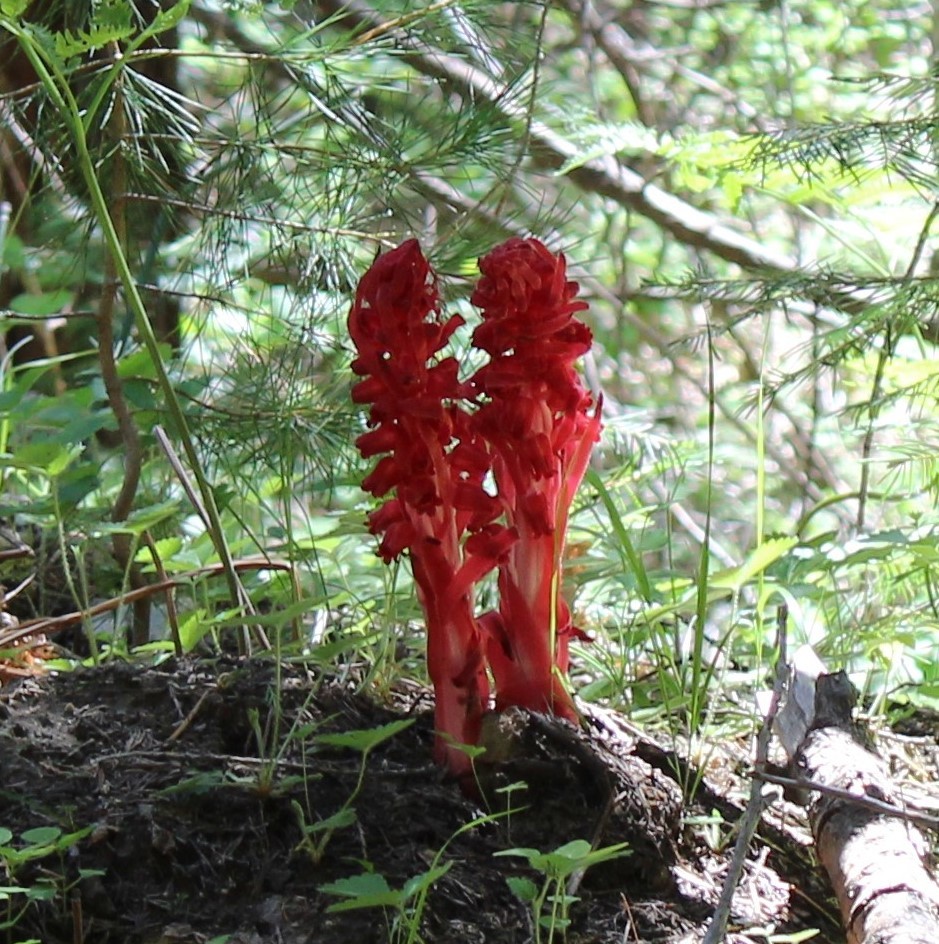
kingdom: Plantae
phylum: Tracheophyta
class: Magnoliopsida
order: Ericales
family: Ericaceae
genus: Sarcodes
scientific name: Sarcodes sanguinea
